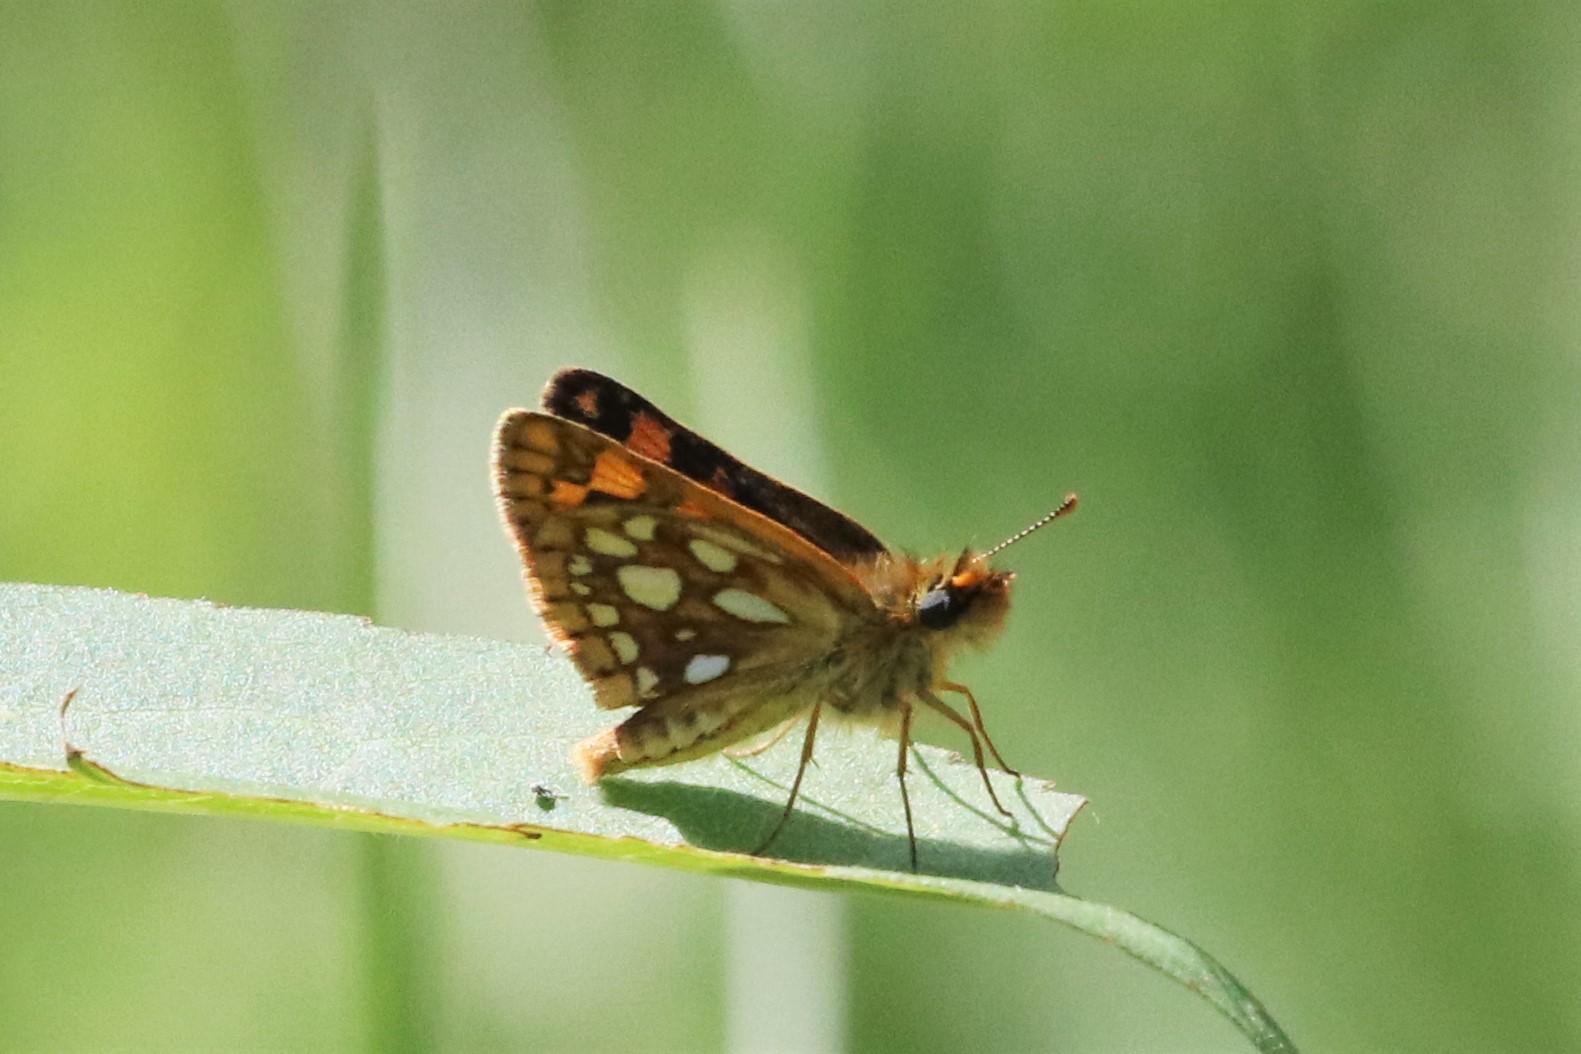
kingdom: Animalia
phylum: Arthropoda
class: Insecta
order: Lepidoptera
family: Hesperiidae
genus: Carterocephalus
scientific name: Carterocephalus mandan
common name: Arctic skipperling
